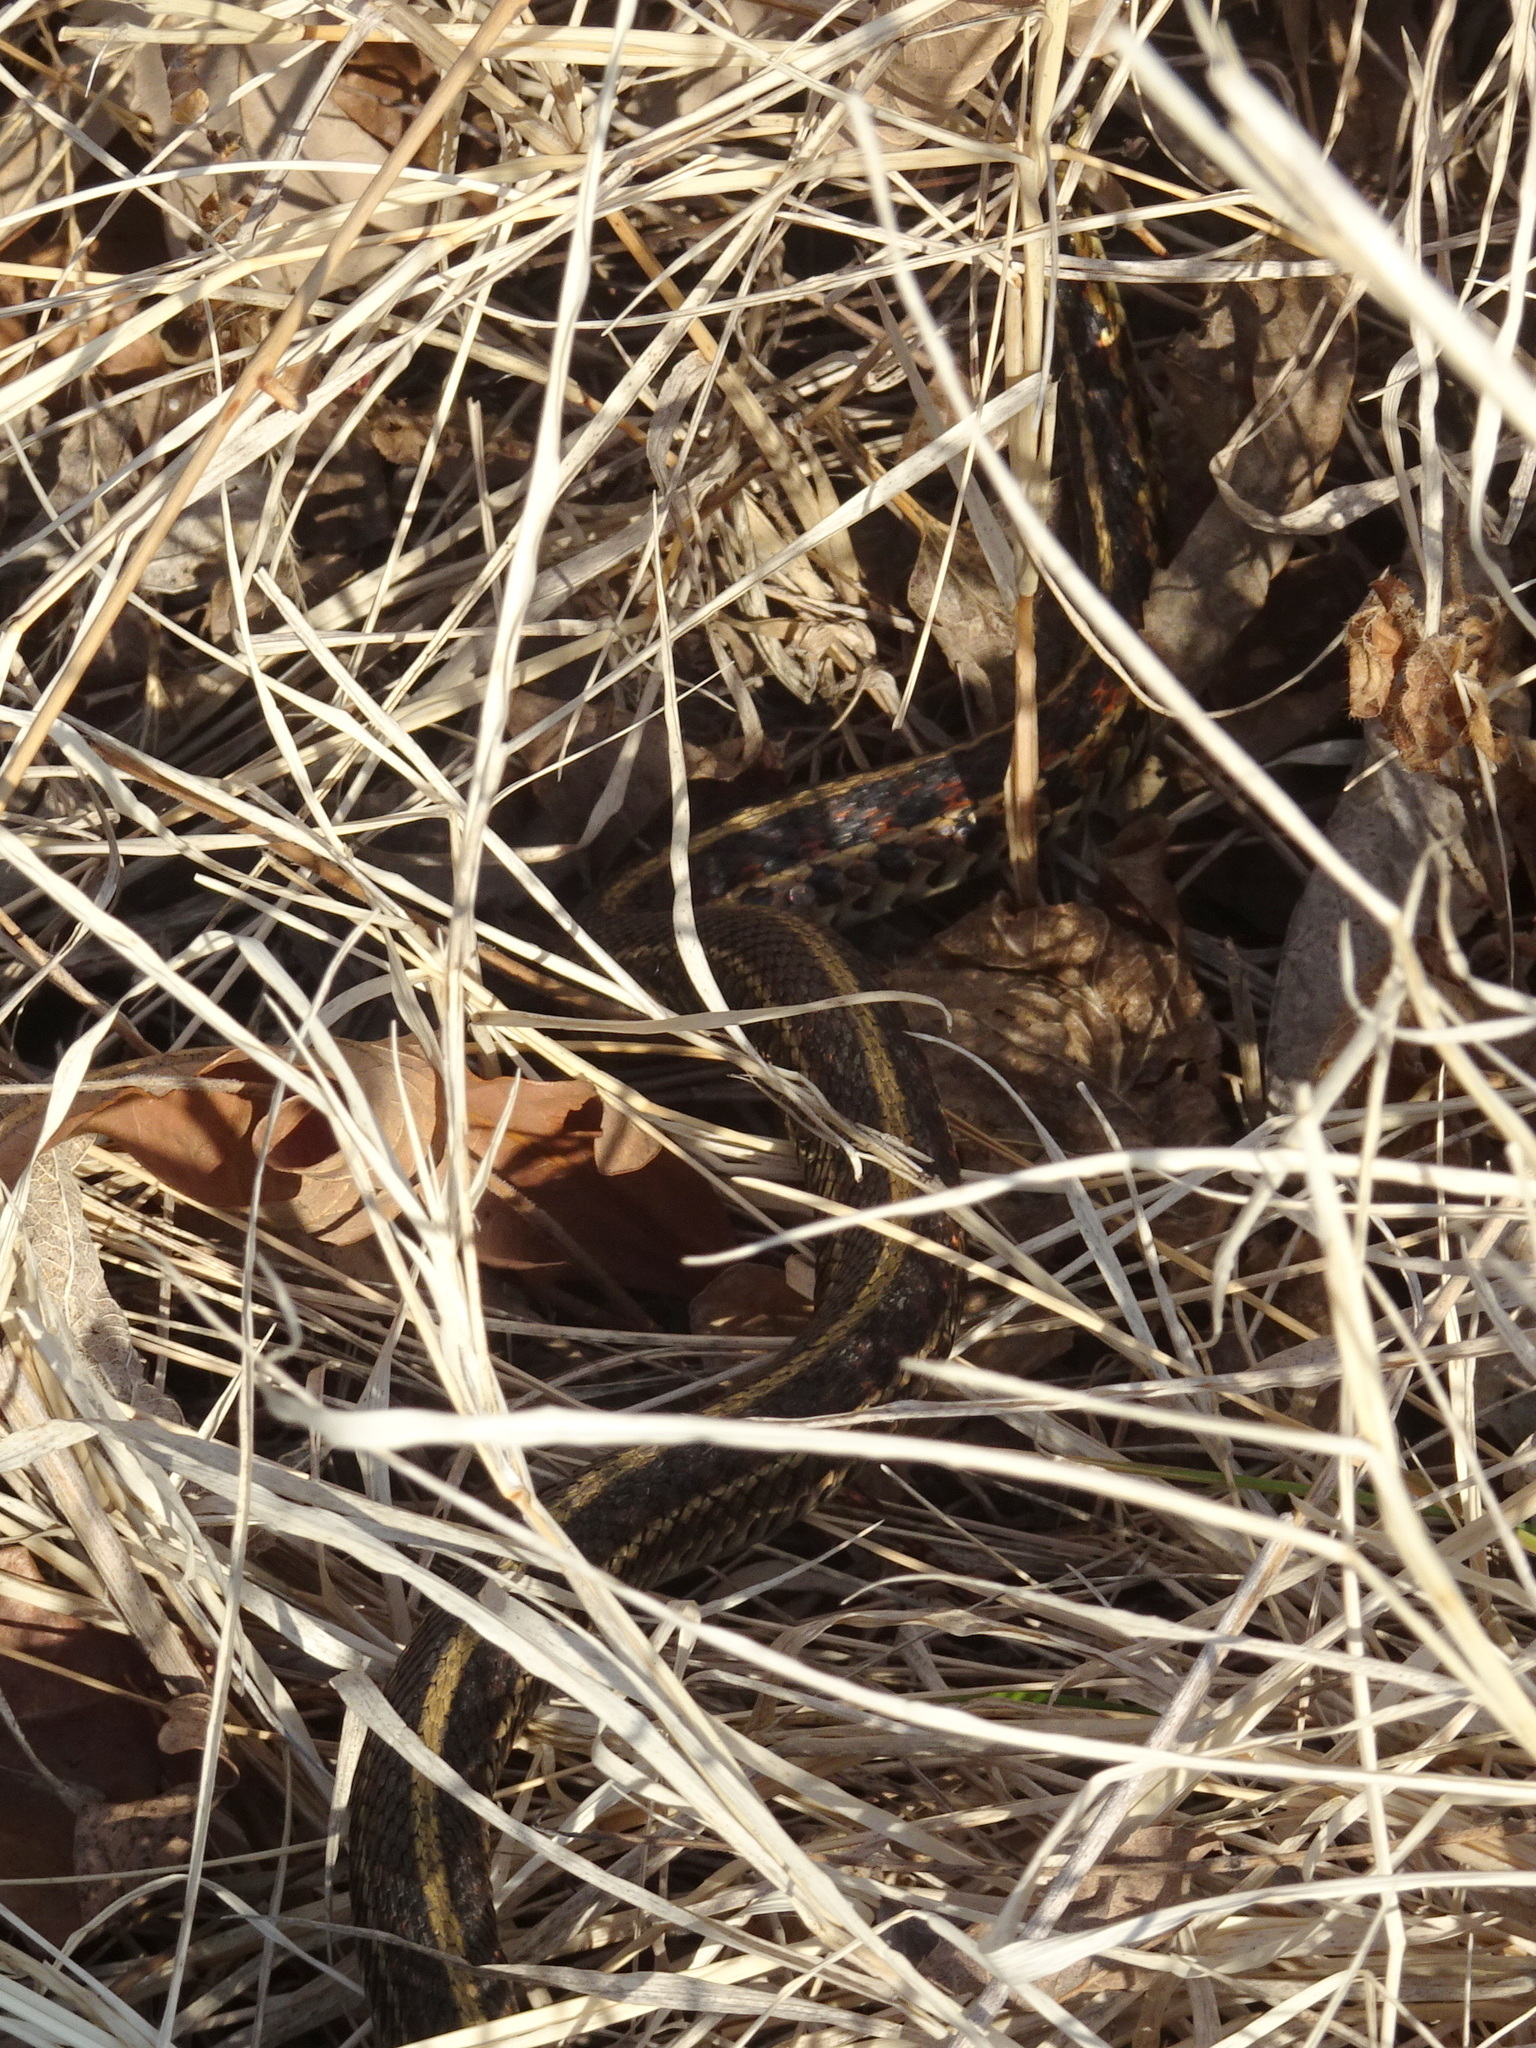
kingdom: Animalia
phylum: Chordata
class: Squamata
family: Colubridae
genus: Thamnophis
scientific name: Thamnophis sirtalis
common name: Common garter snake
